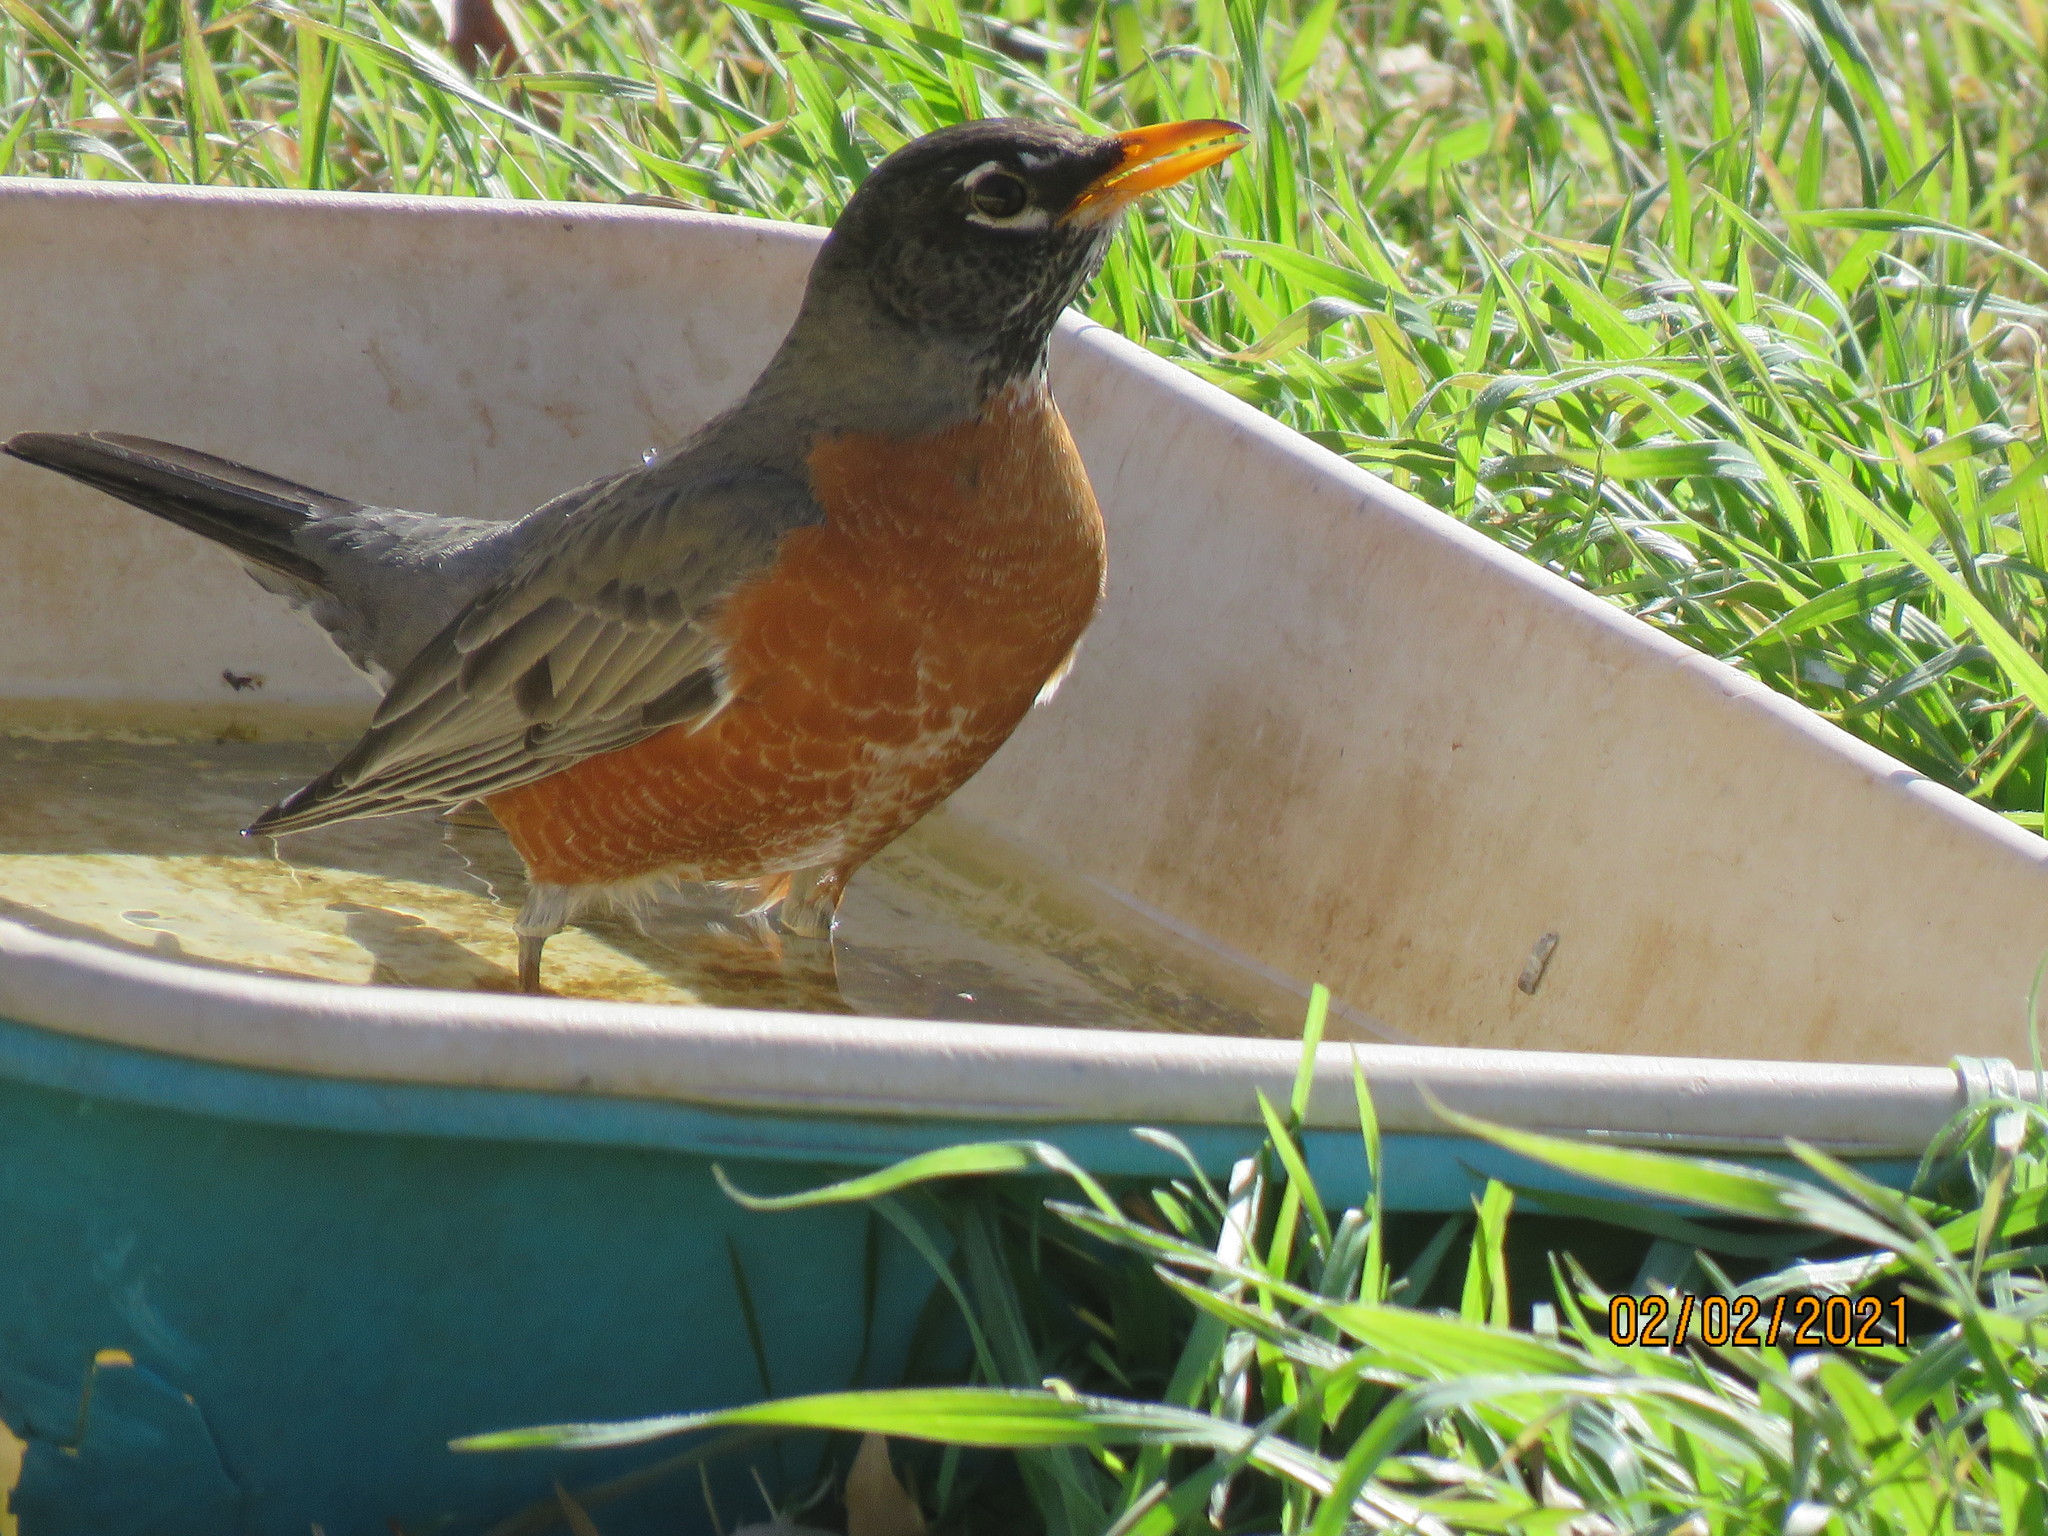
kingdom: Animalia
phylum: Chordata
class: Aves
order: Passeriformes
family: Turdidae
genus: Turdus
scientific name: Turdus migratorius
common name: American robin
